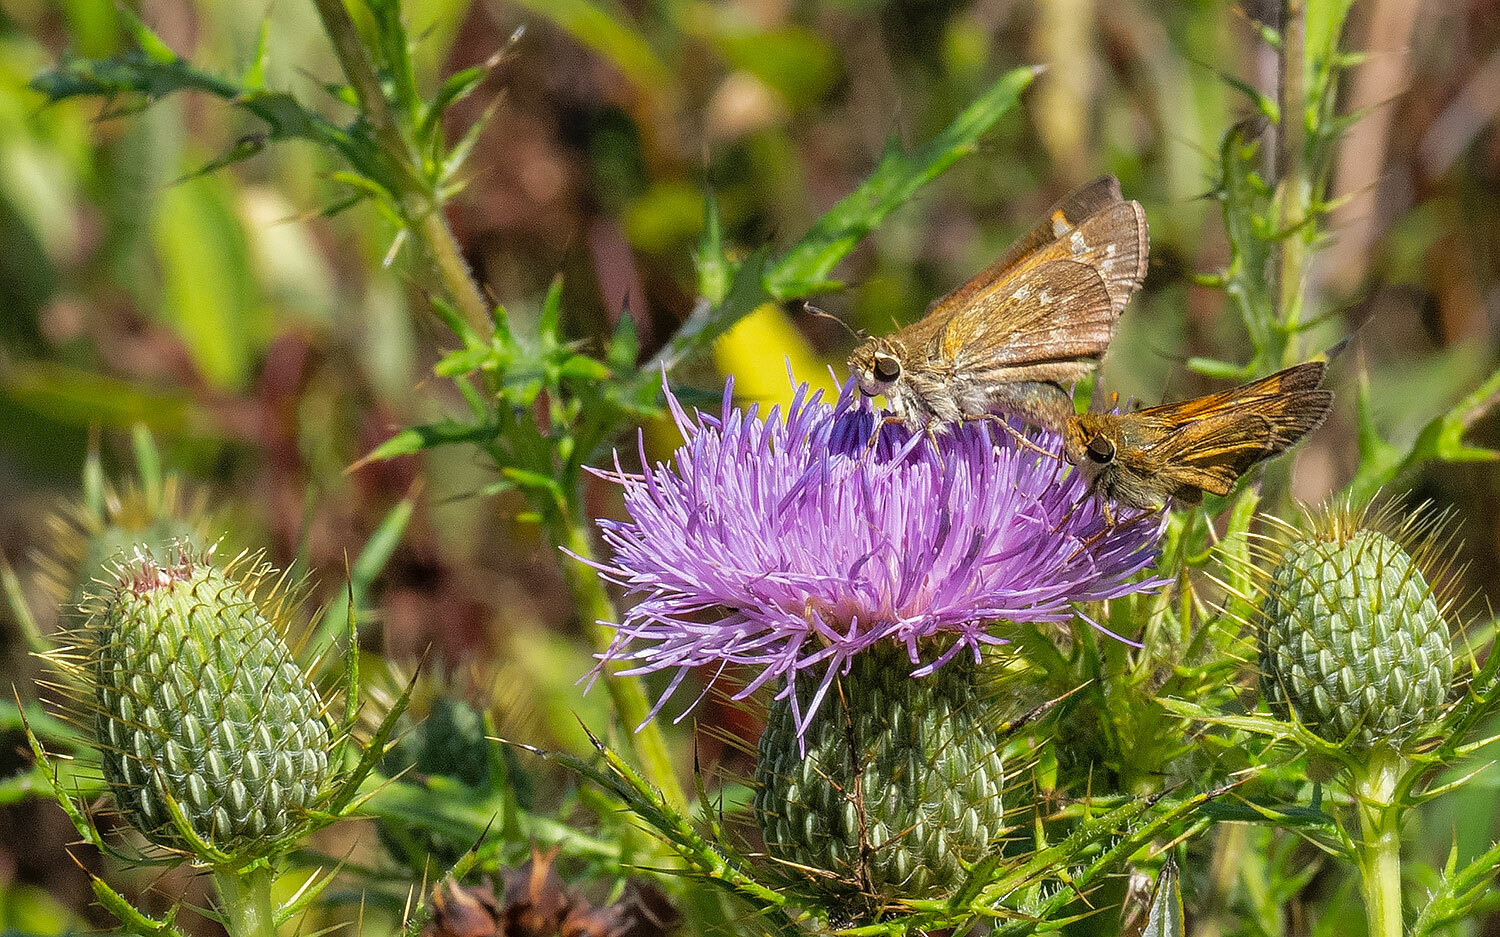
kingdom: Animalia
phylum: Arthropoda
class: Insecta
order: Lepidoptera
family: Hesperiidae
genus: Atalopedes
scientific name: Atalopedes
